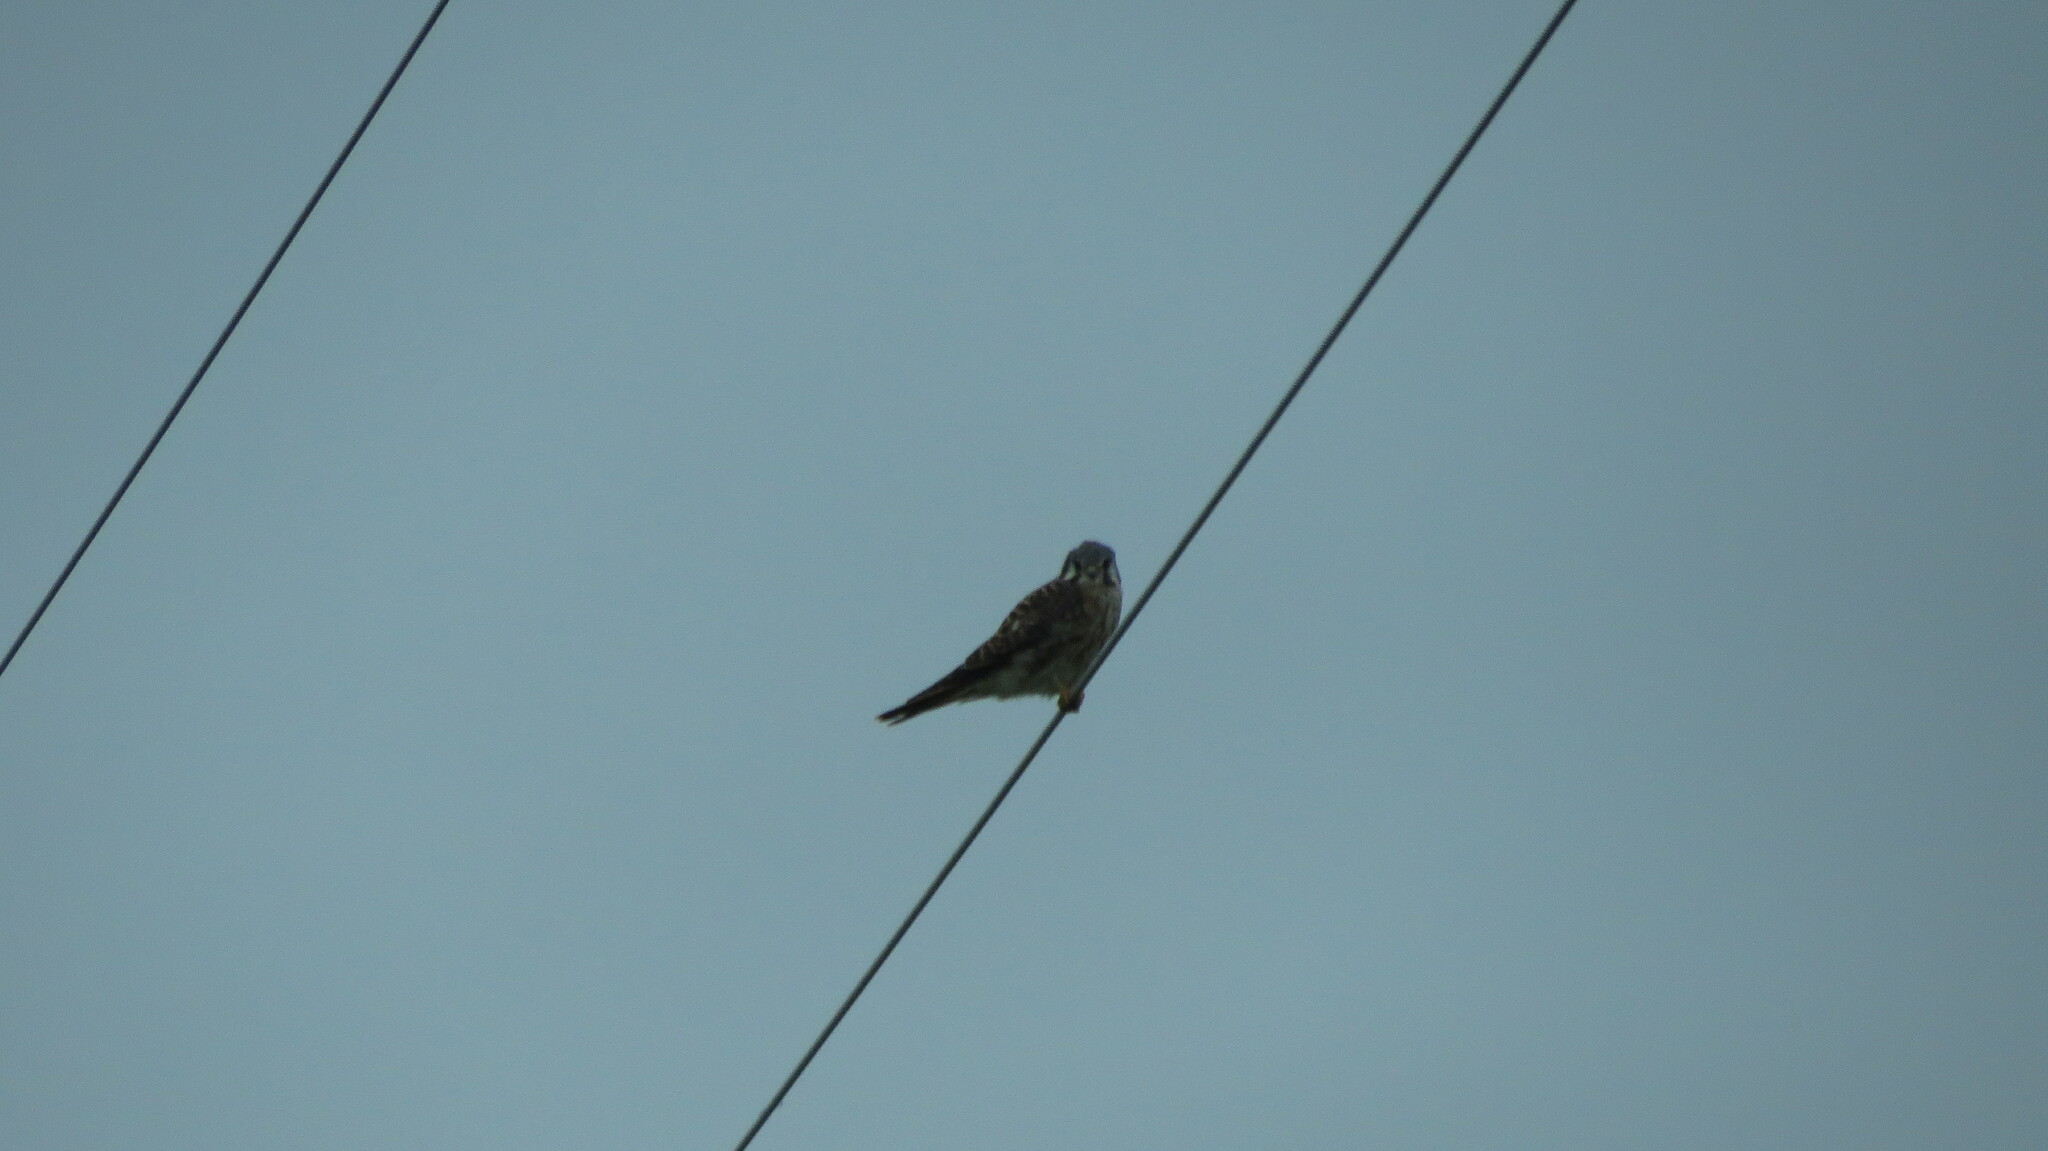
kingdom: Animalia
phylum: Chordata
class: Aves
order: Falconiformes
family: Falconidae
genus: Falco
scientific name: Falco sparverius
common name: American kestrel
